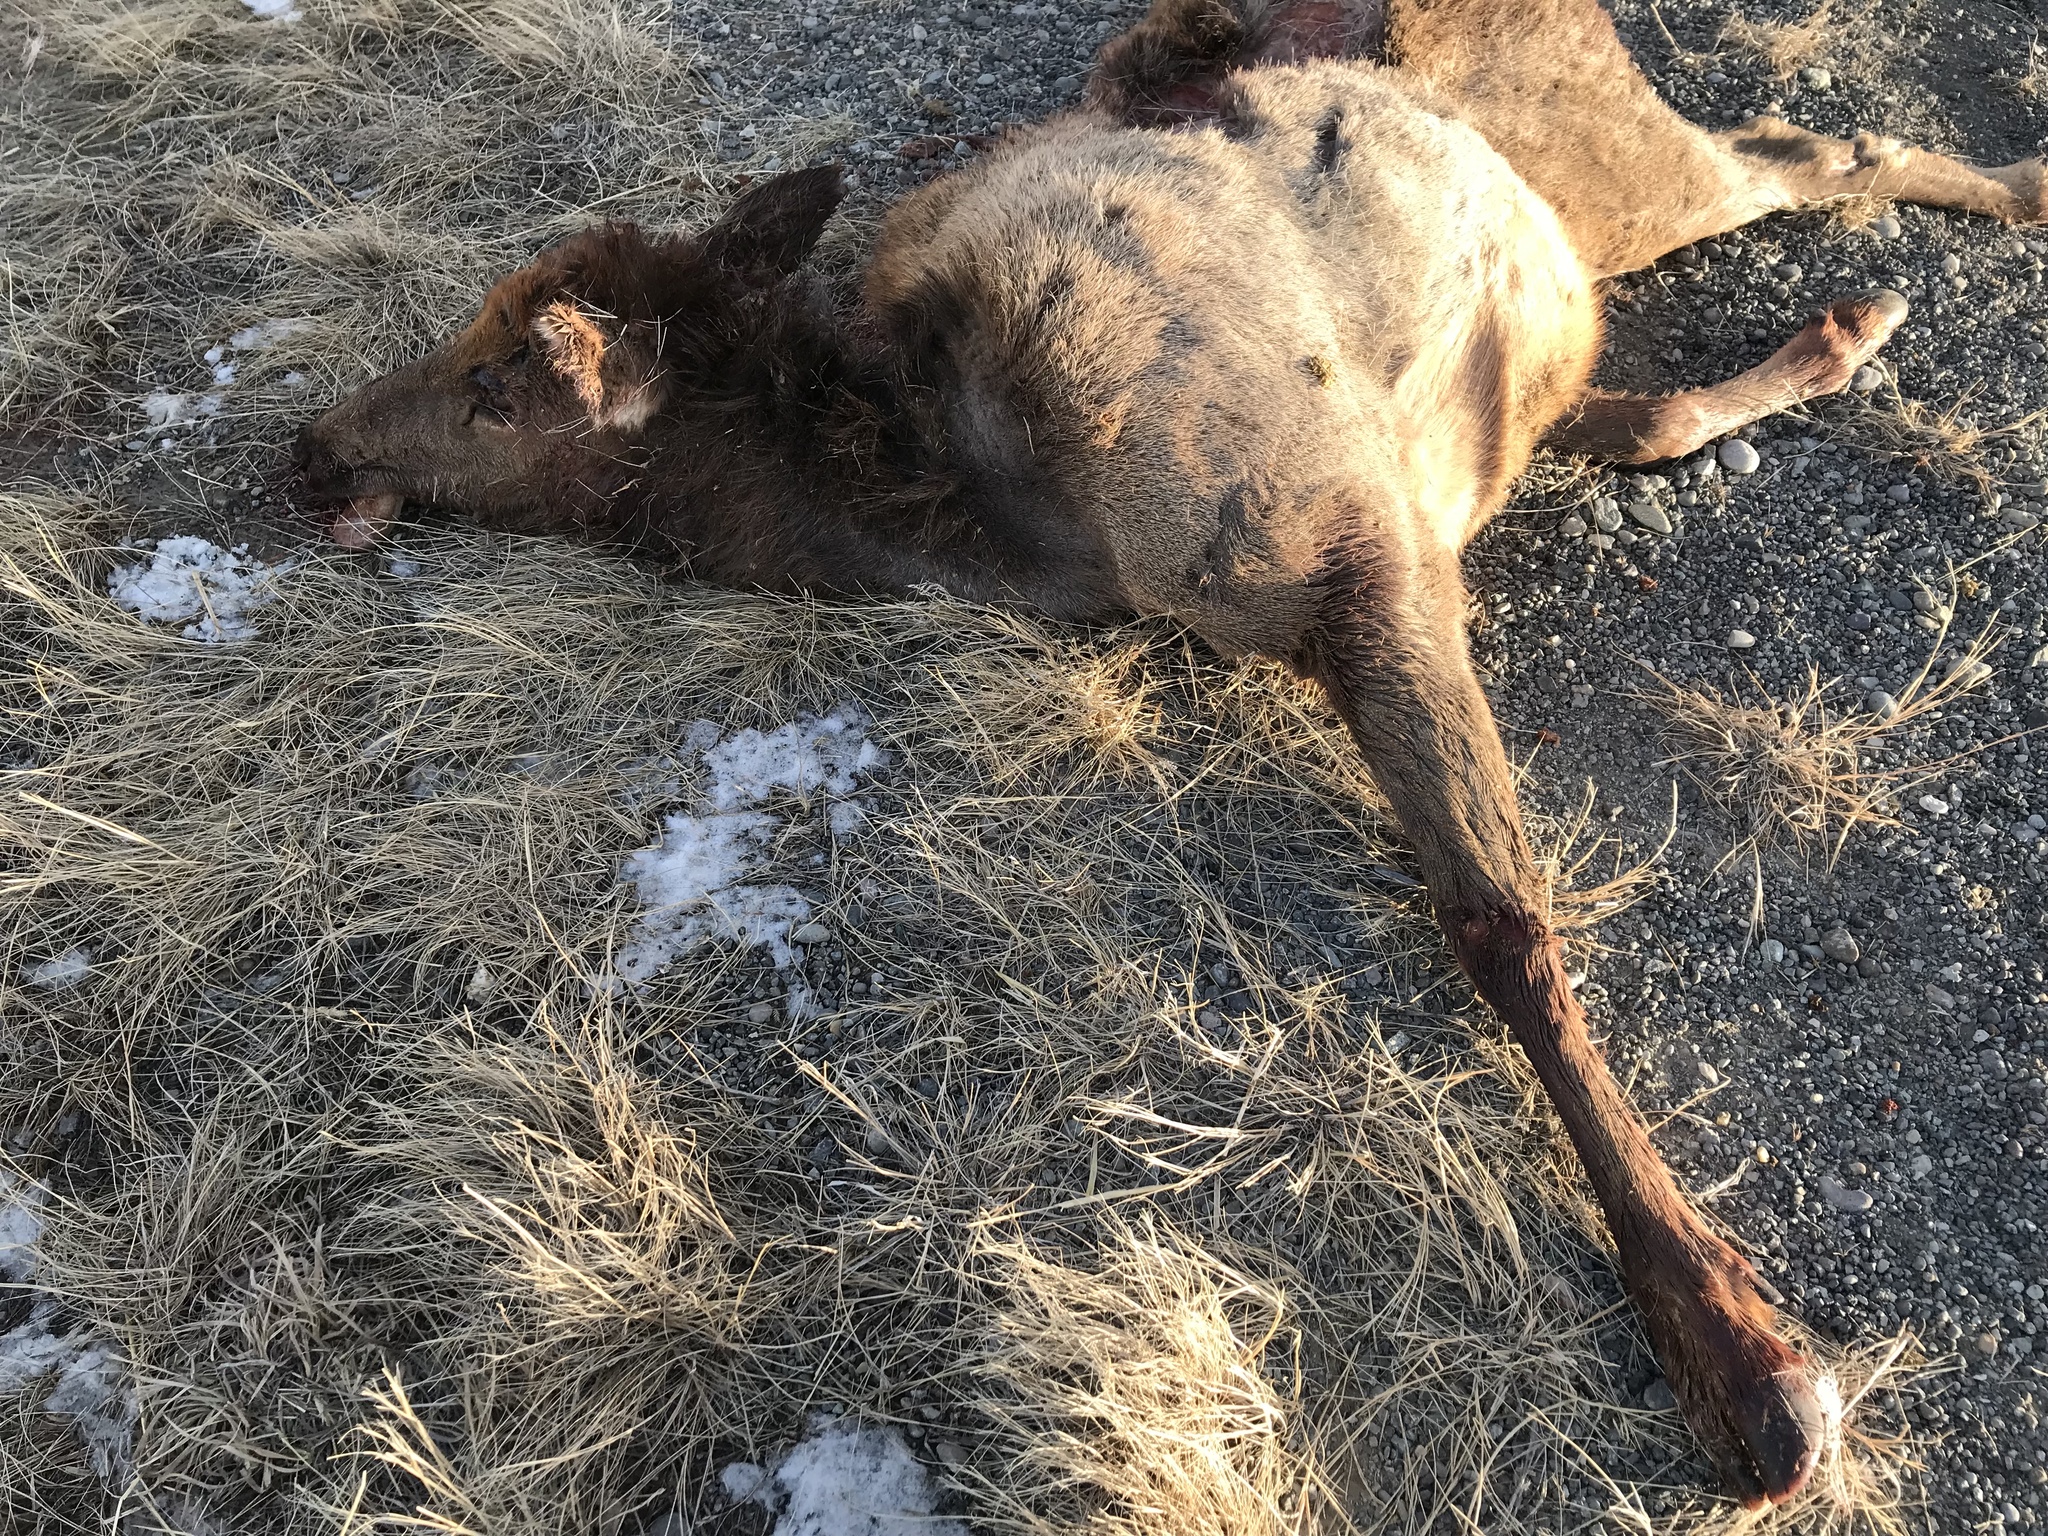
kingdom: Animalia
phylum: Chordata
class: Mammalia
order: Artiodactyla
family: Cervidae
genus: Cervus
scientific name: Cervus elaphus
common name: Red deer
